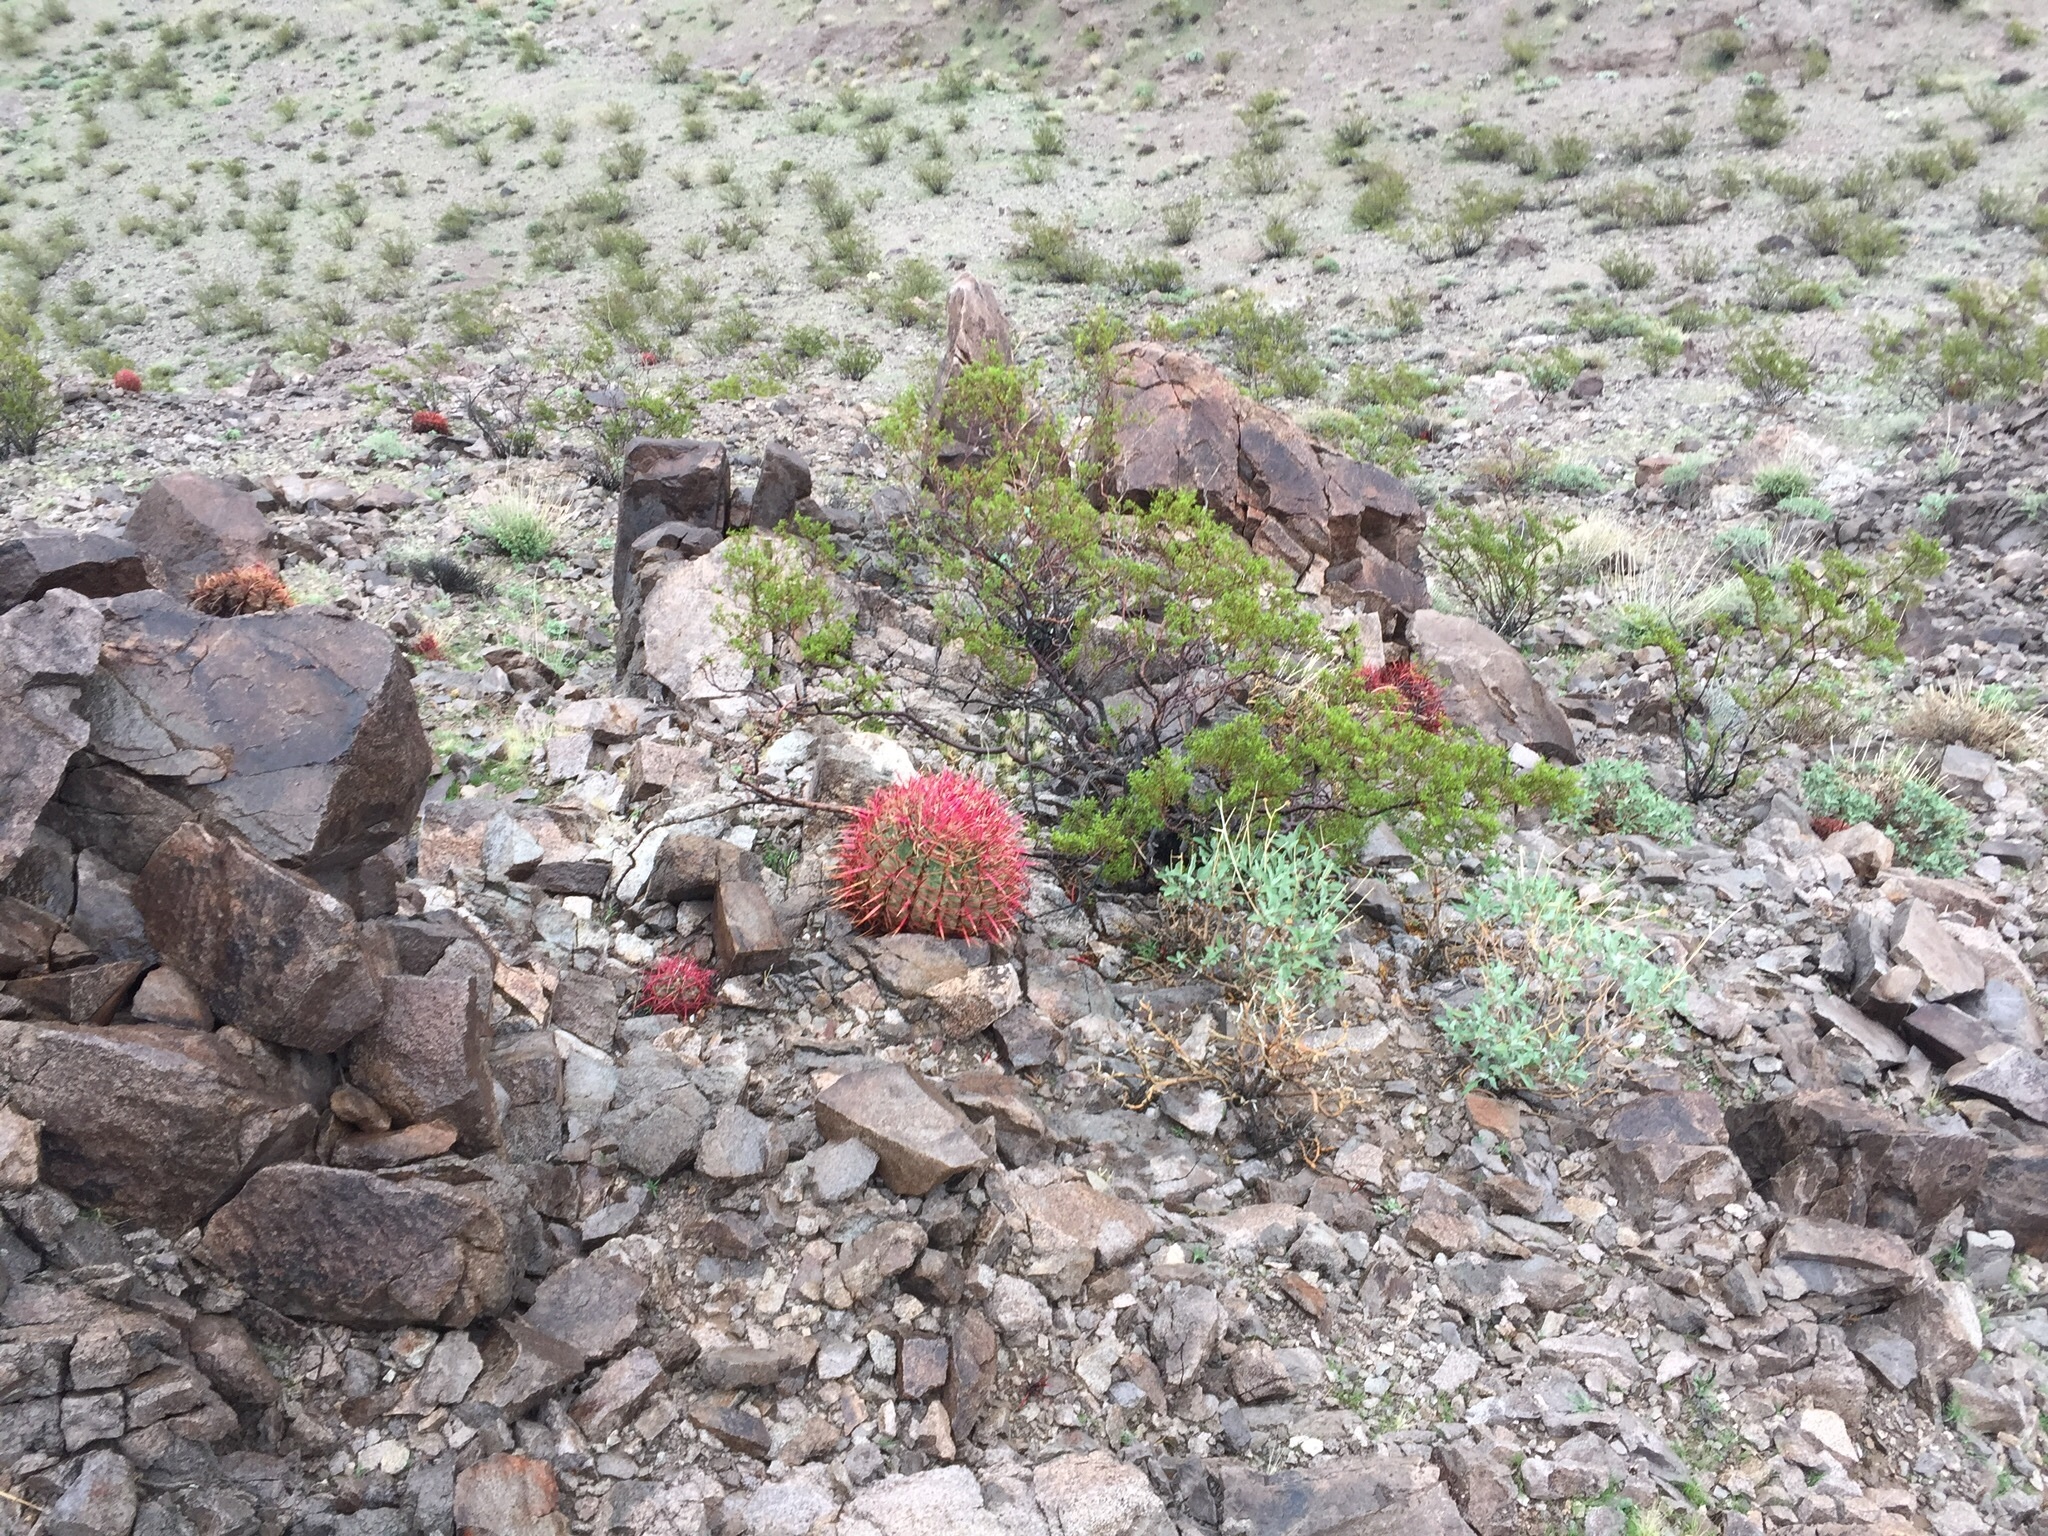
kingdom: Plantae
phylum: Tracheophyta
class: Magnoliopsida
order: Caryophyllales
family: Cactaceae
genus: Ferocactus
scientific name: Ferocactus cylindraceus
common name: California barrel cactus
